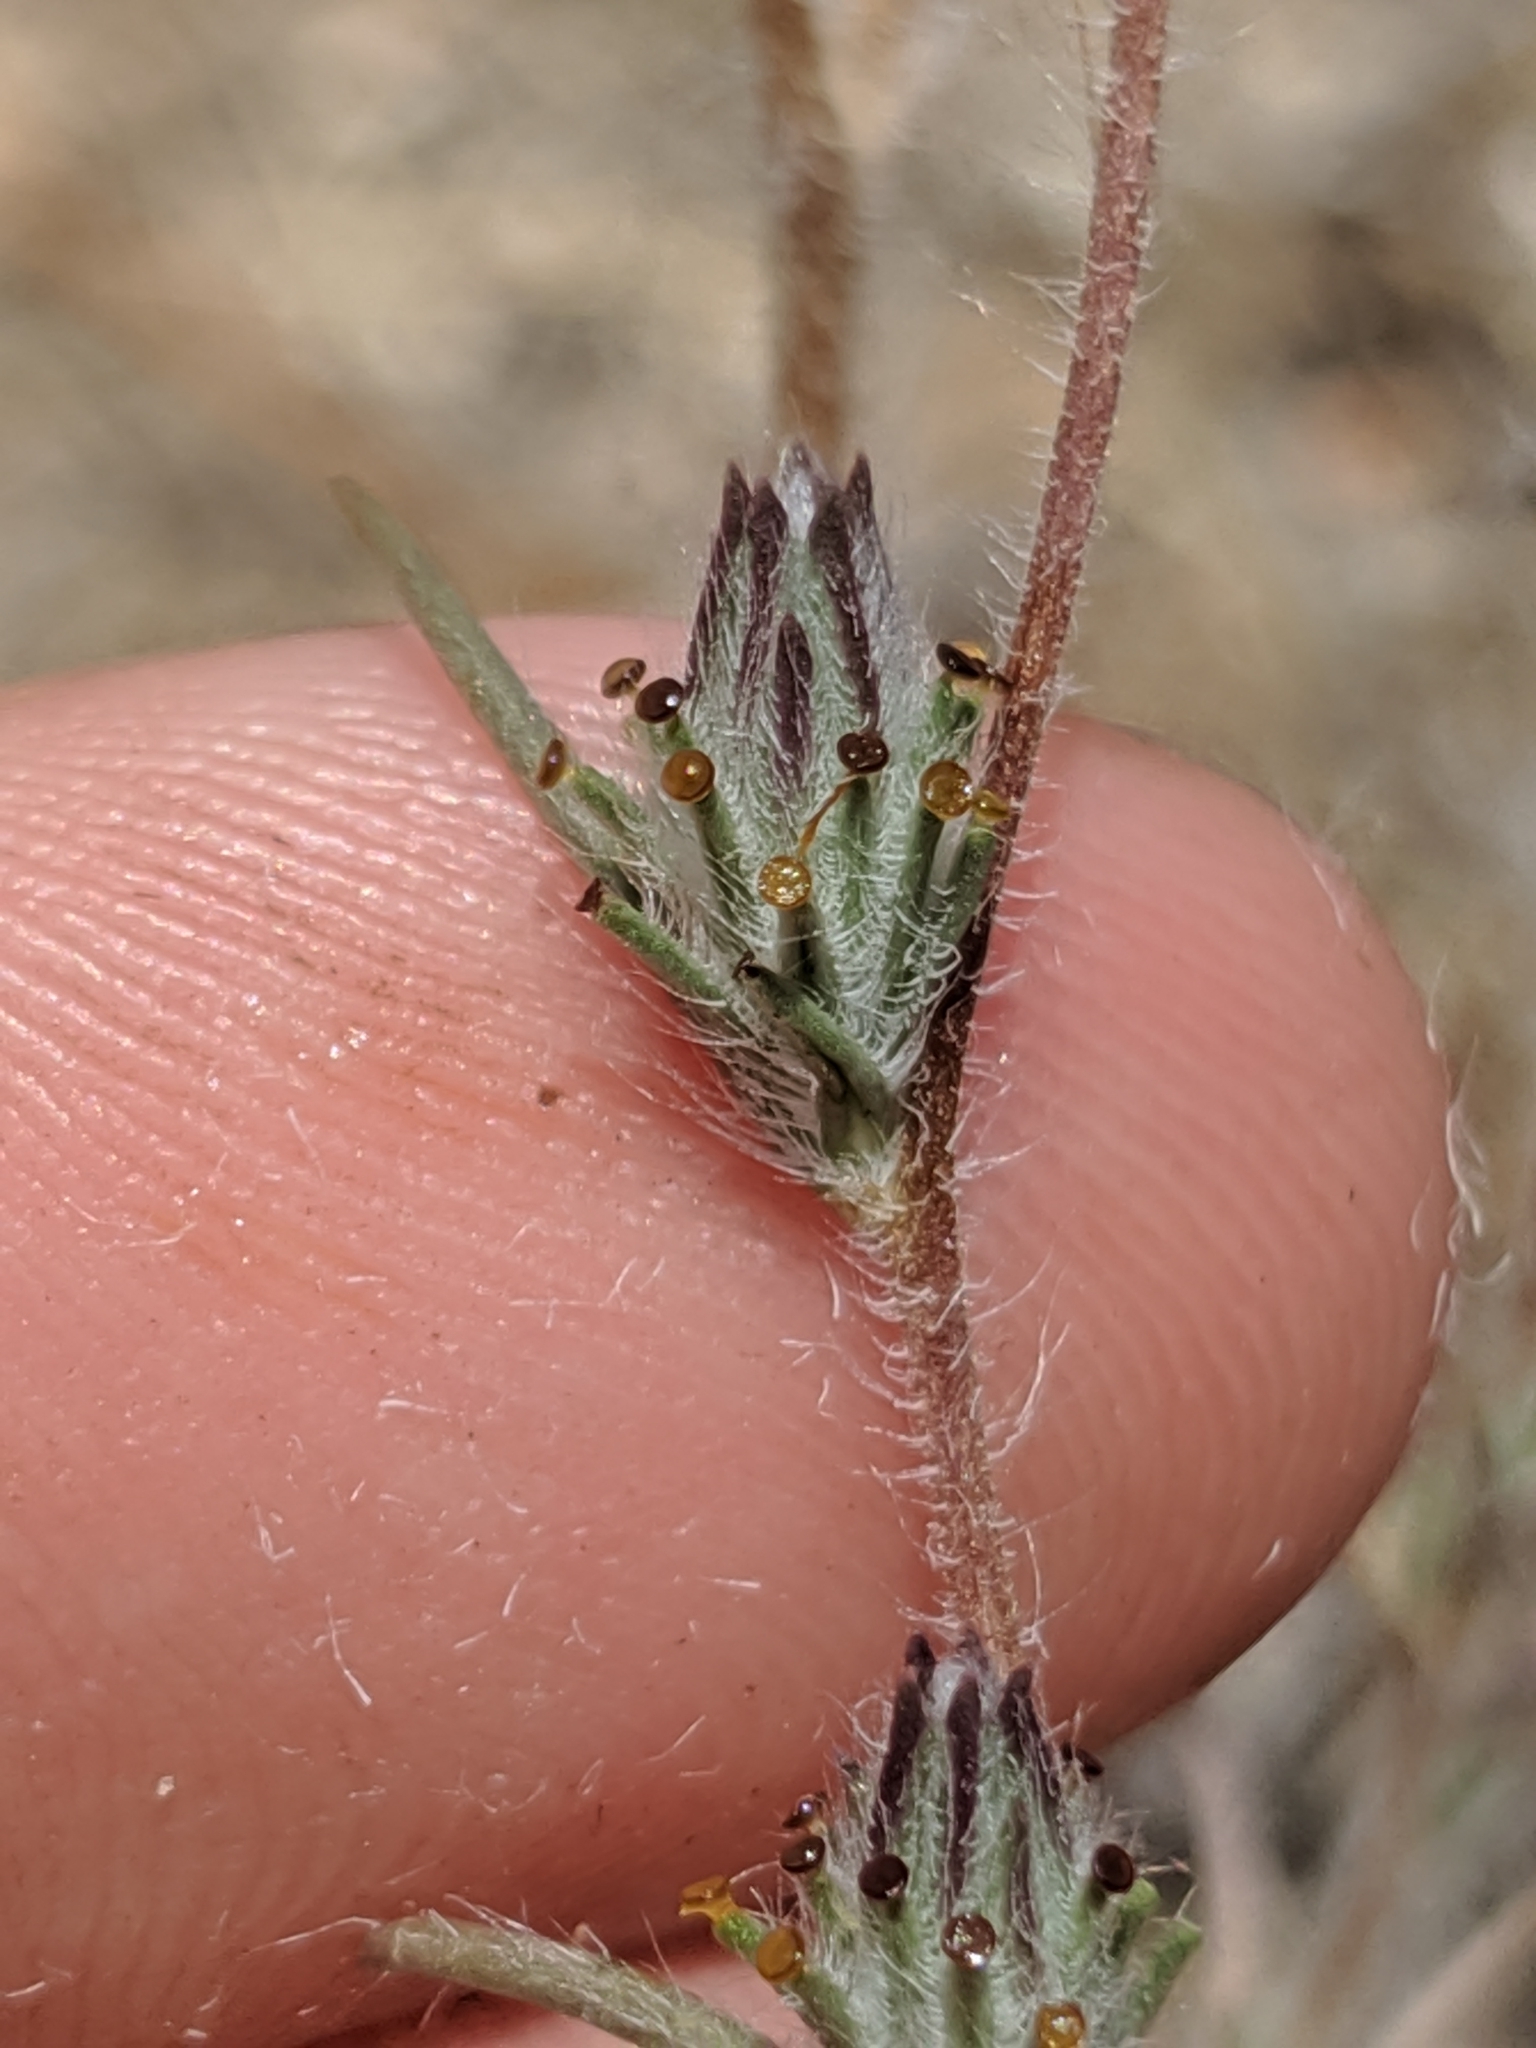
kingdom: Plantae
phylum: Tracheophyta
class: Magnoliopsida
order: Asterales
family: Asteraceae
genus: Calycadenia
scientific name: Calycadenia villosa
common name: Dwarf calycadenia
